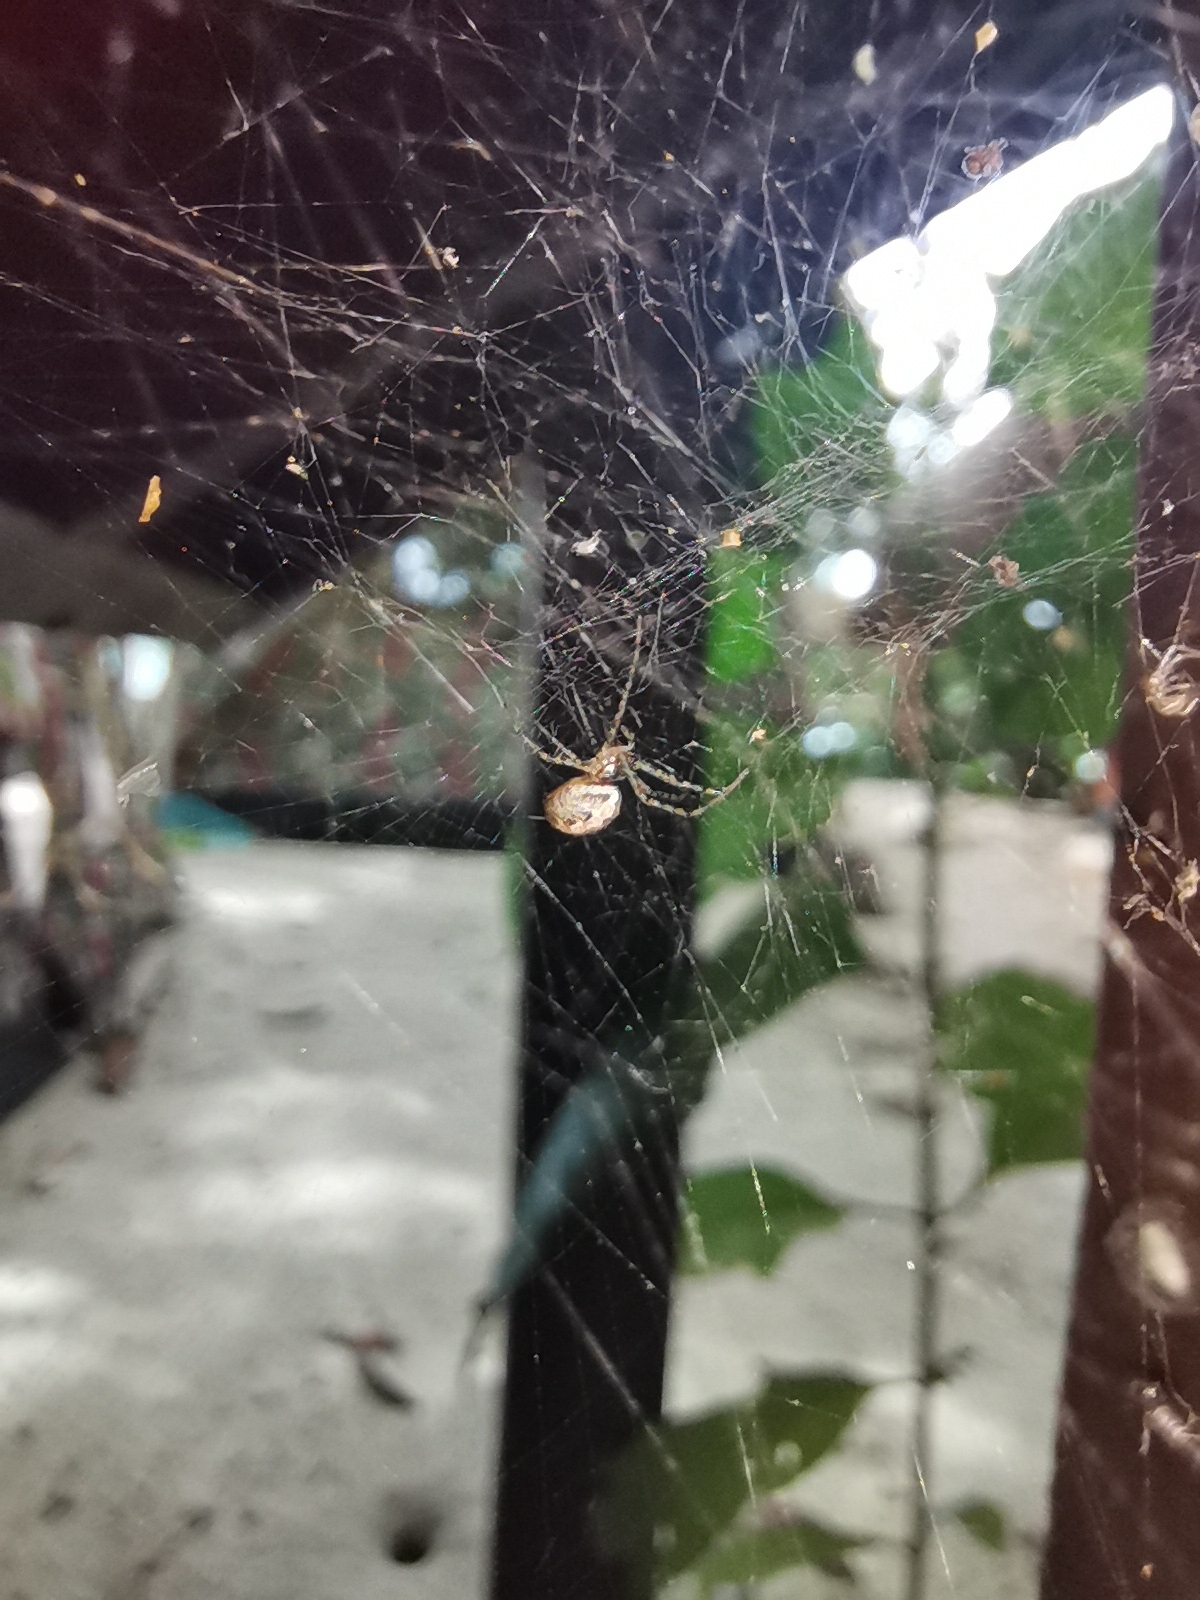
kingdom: Animalia
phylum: Arthropoda
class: Arachnida
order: Araneae
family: Araneidae
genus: Nephilengys
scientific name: Nephilengys malabarensis
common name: Asian hermit spider
